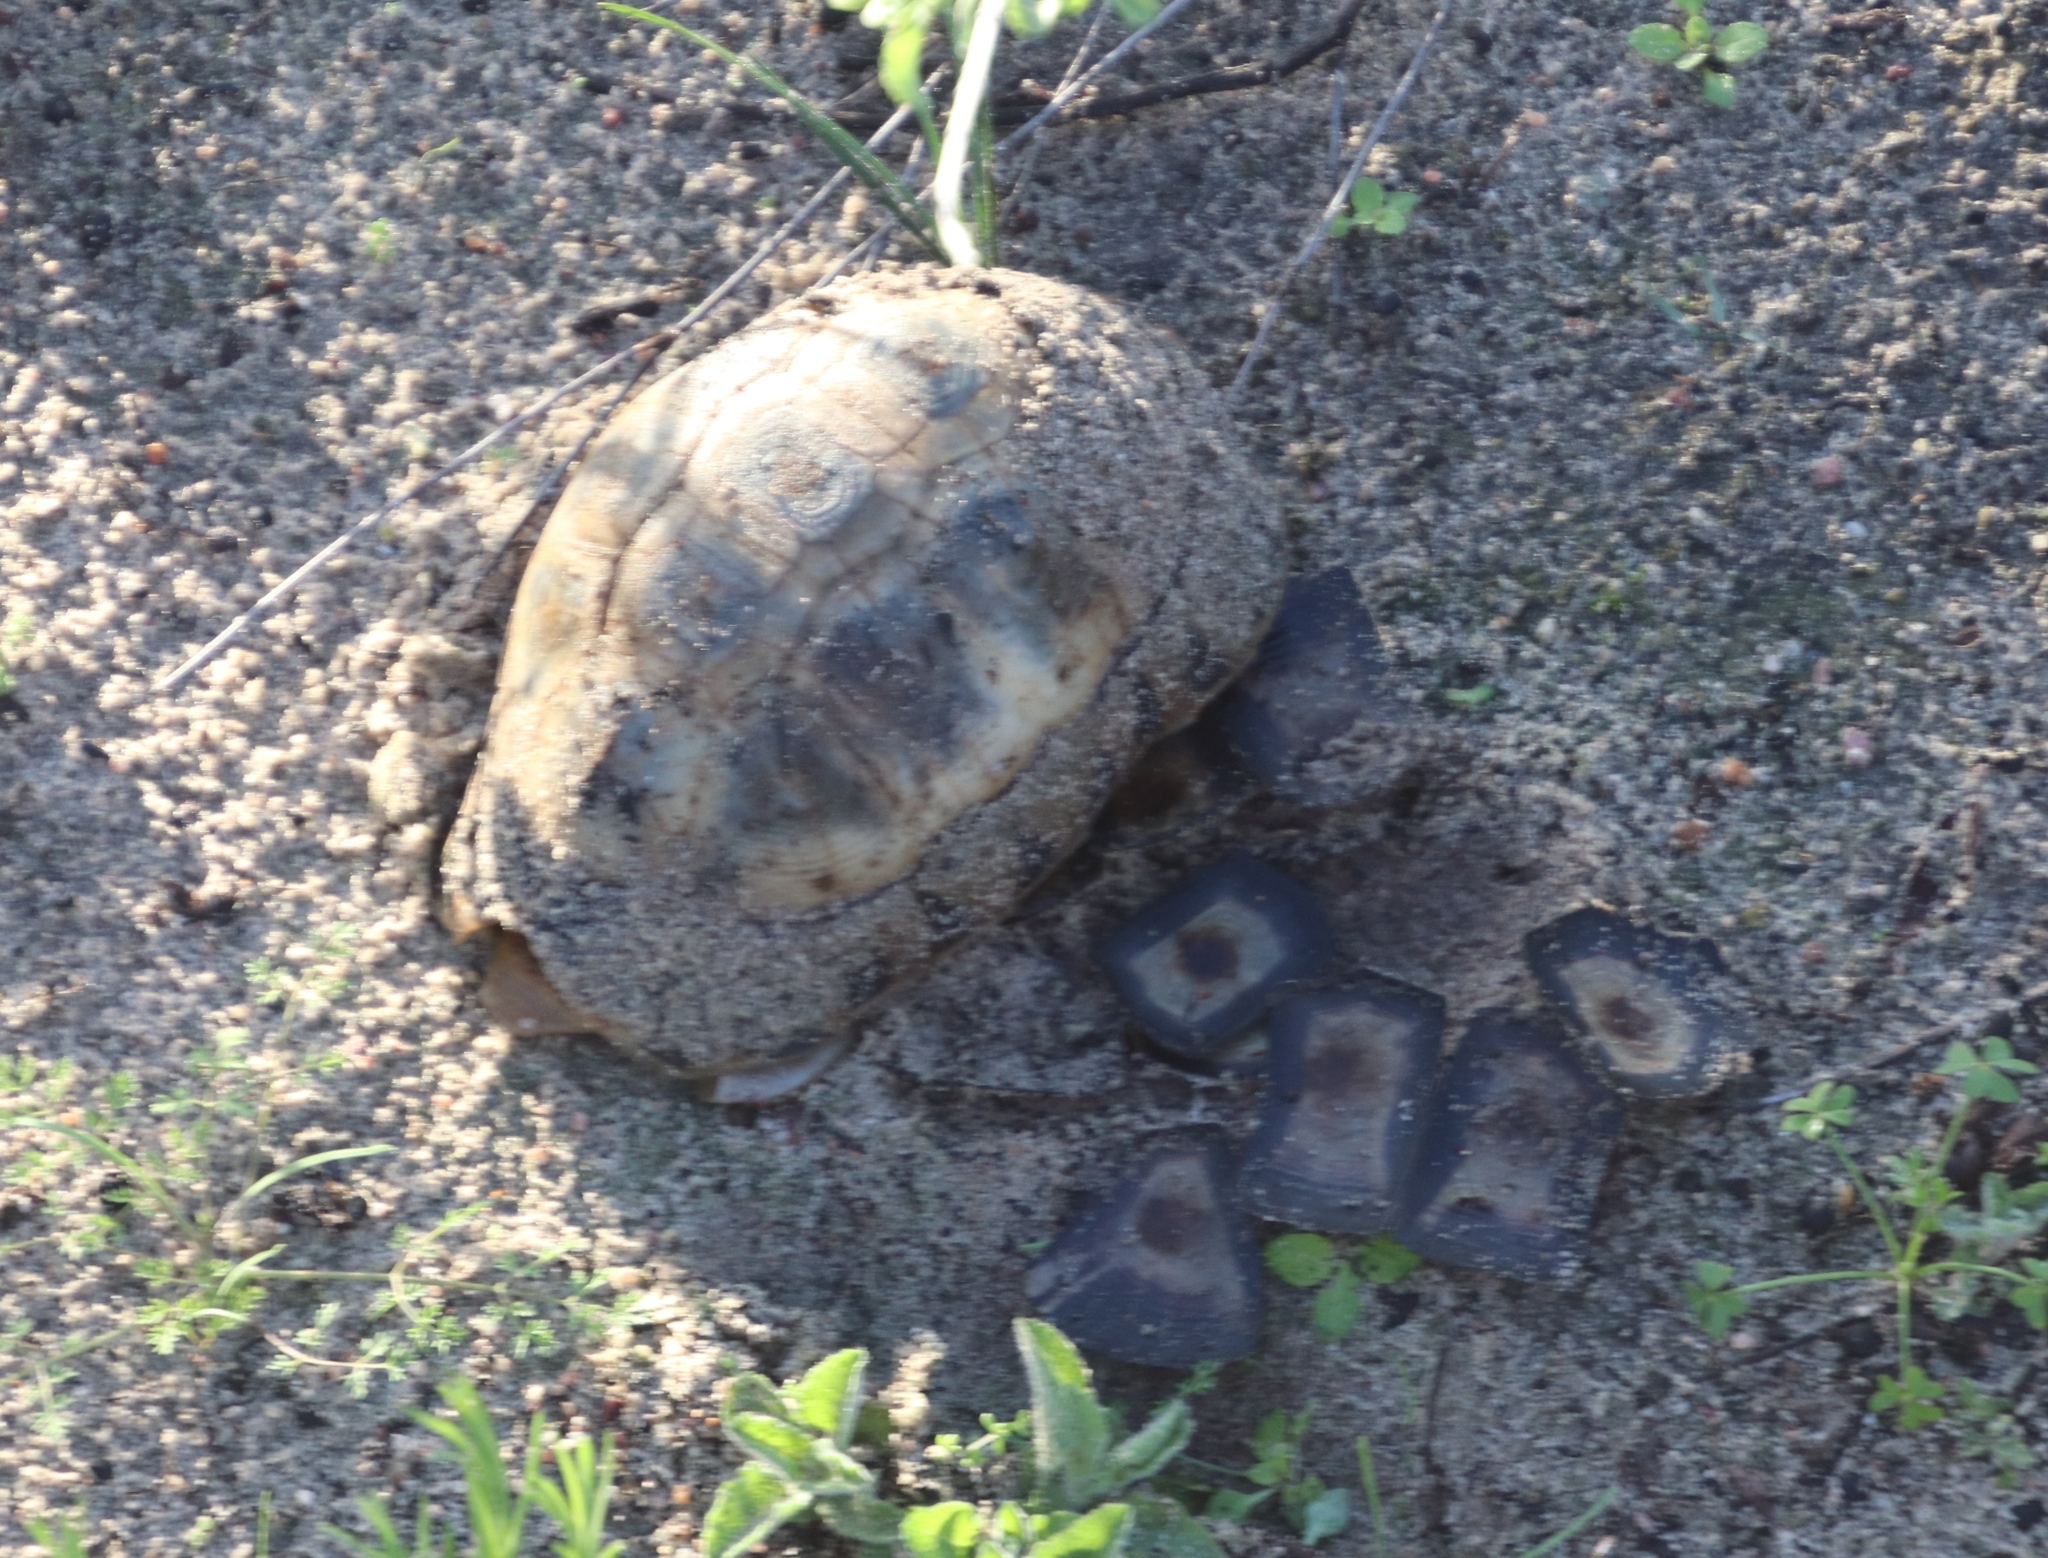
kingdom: Animalia
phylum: Chordata
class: Testudines
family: Testudinidae
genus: Chersina
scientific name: Chersina angulata
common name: South african bowsprit tortoise
